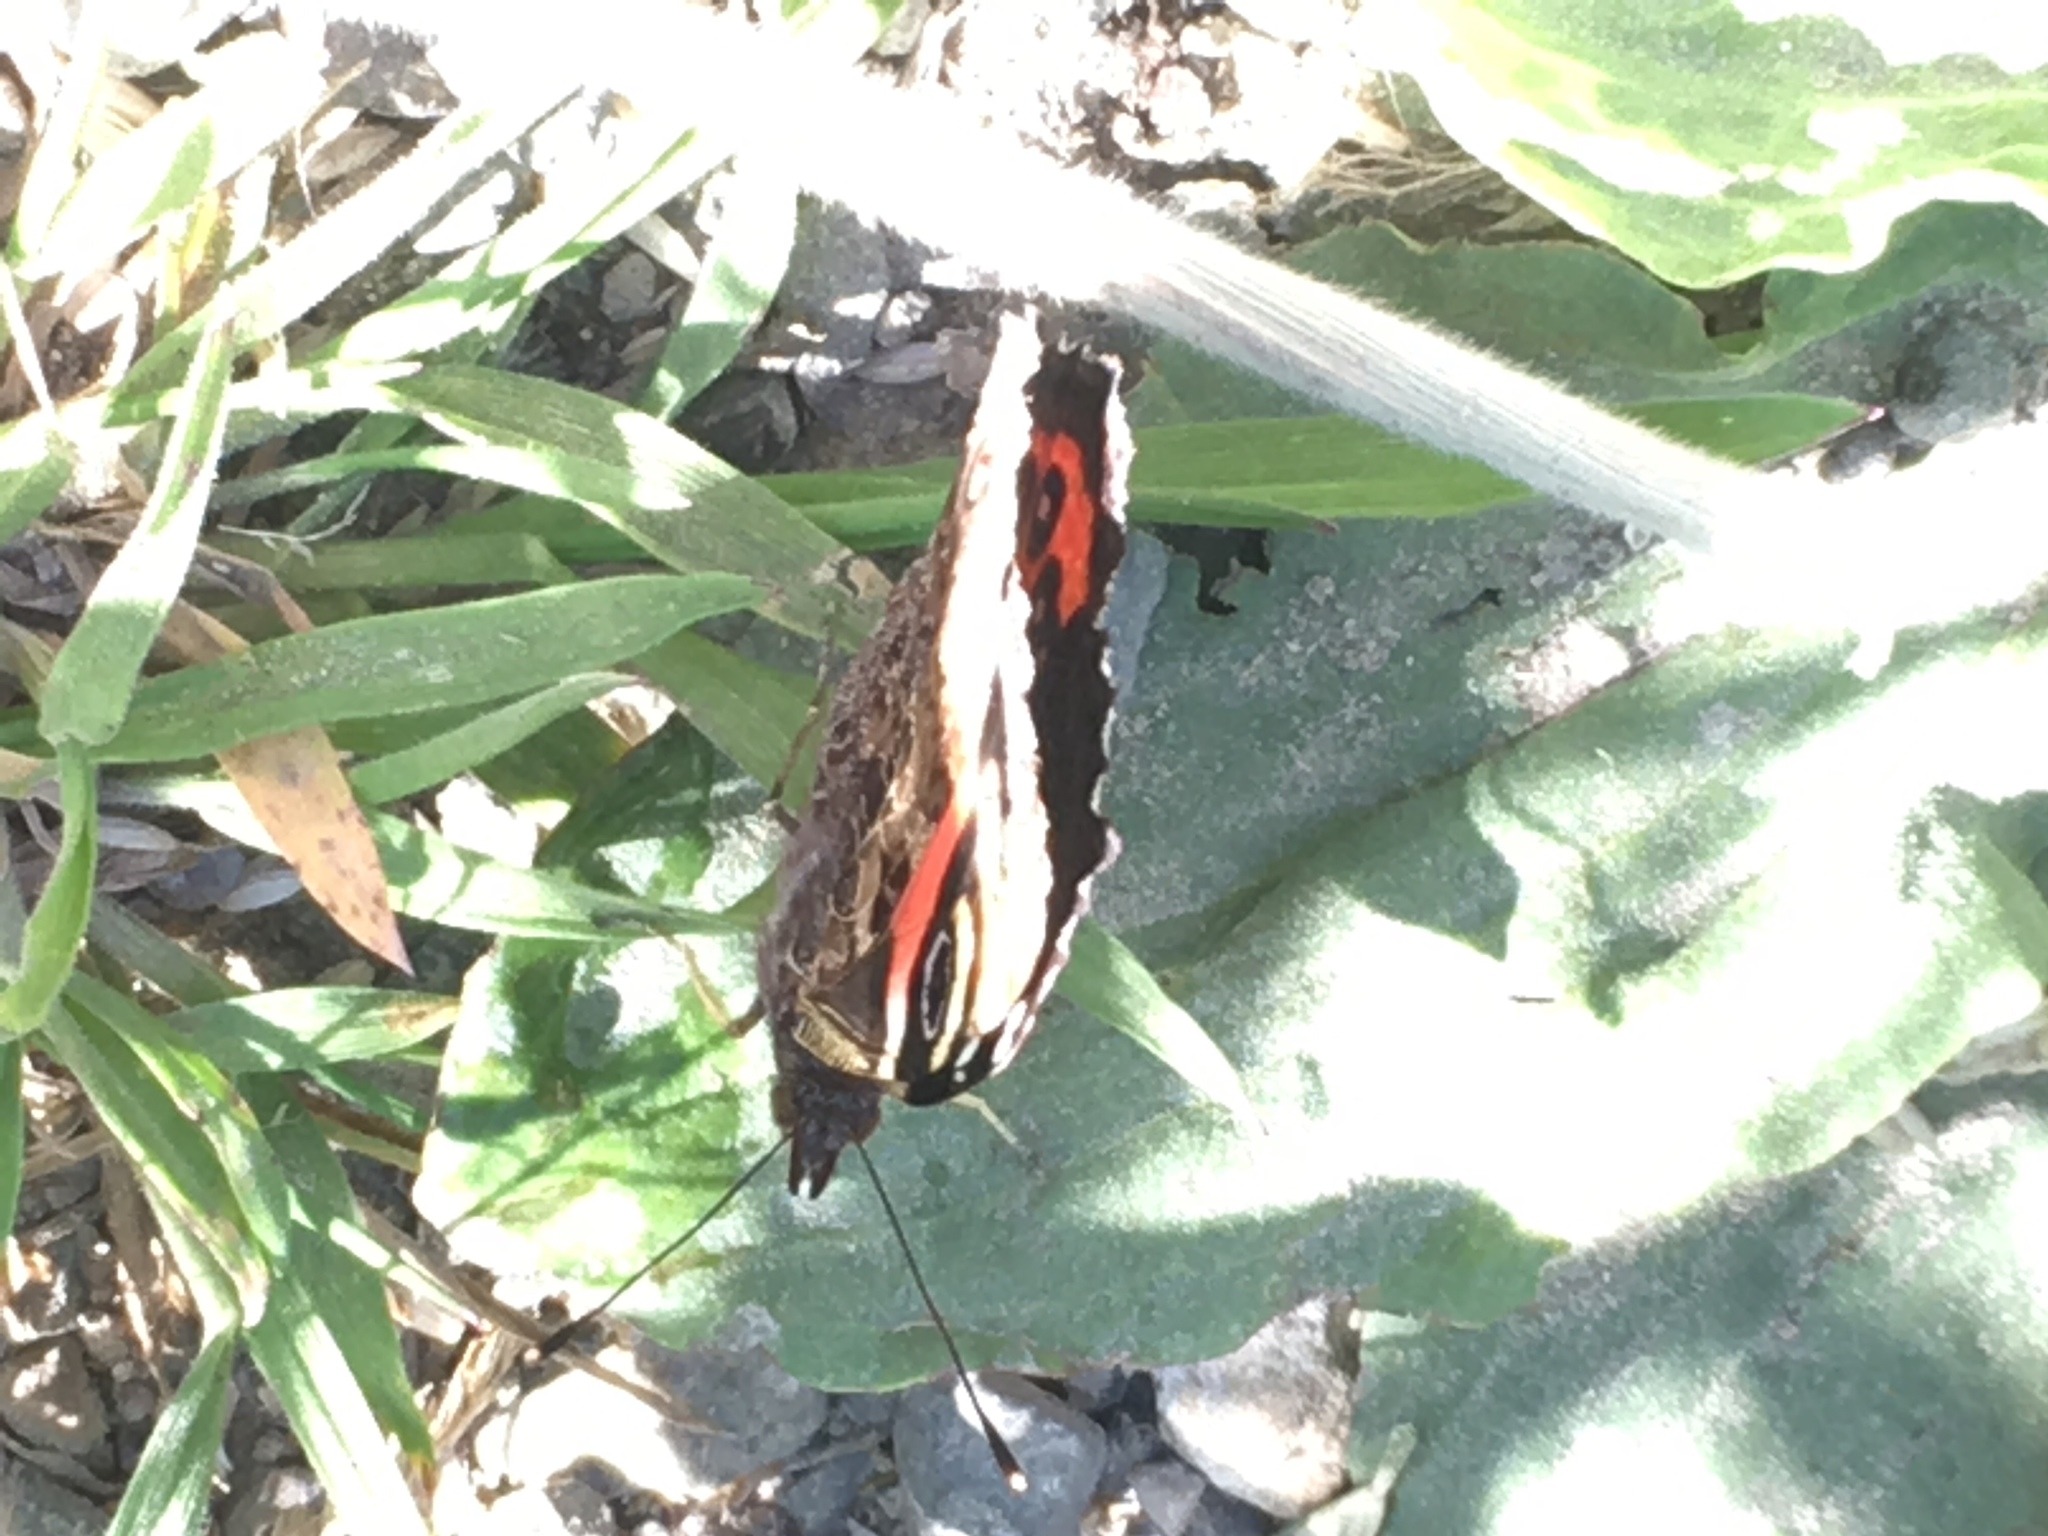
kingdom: Animalia
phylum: Arthropoda
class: Insecta
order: Lepidoptera
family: Nymphalidae
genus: Vanessa
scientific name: Vanessa gonerilla
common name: New zealand red admiral
